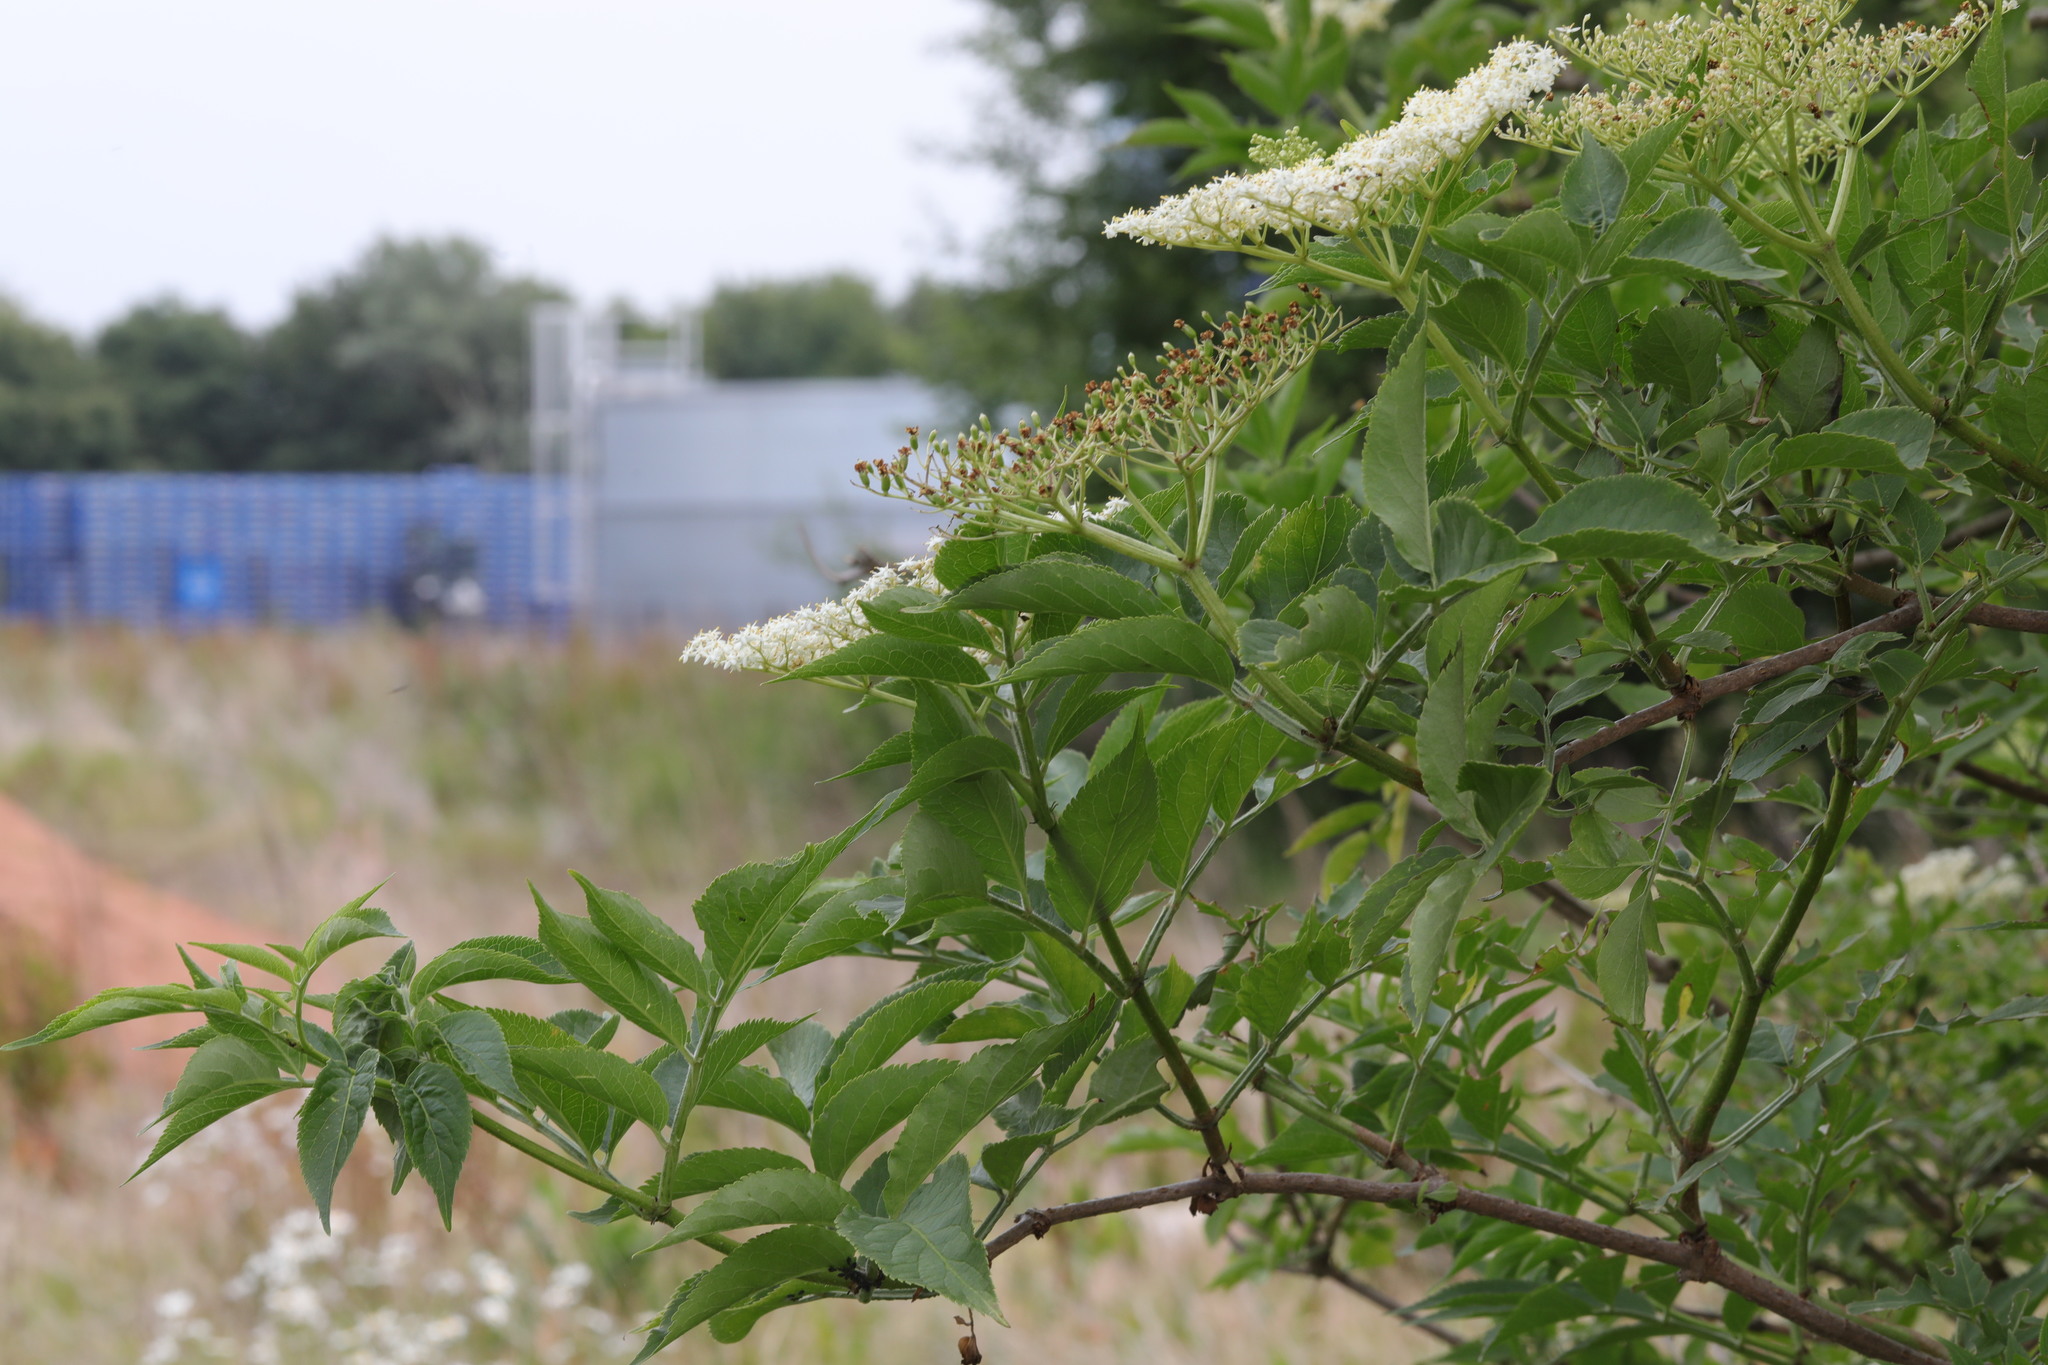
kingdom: Plantae
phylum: Tracheophyta
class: Magnoliopsida
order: Dipsacales
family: Viburnaceae
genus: Sambucus
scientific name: Sambucus nigra
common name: Elder
